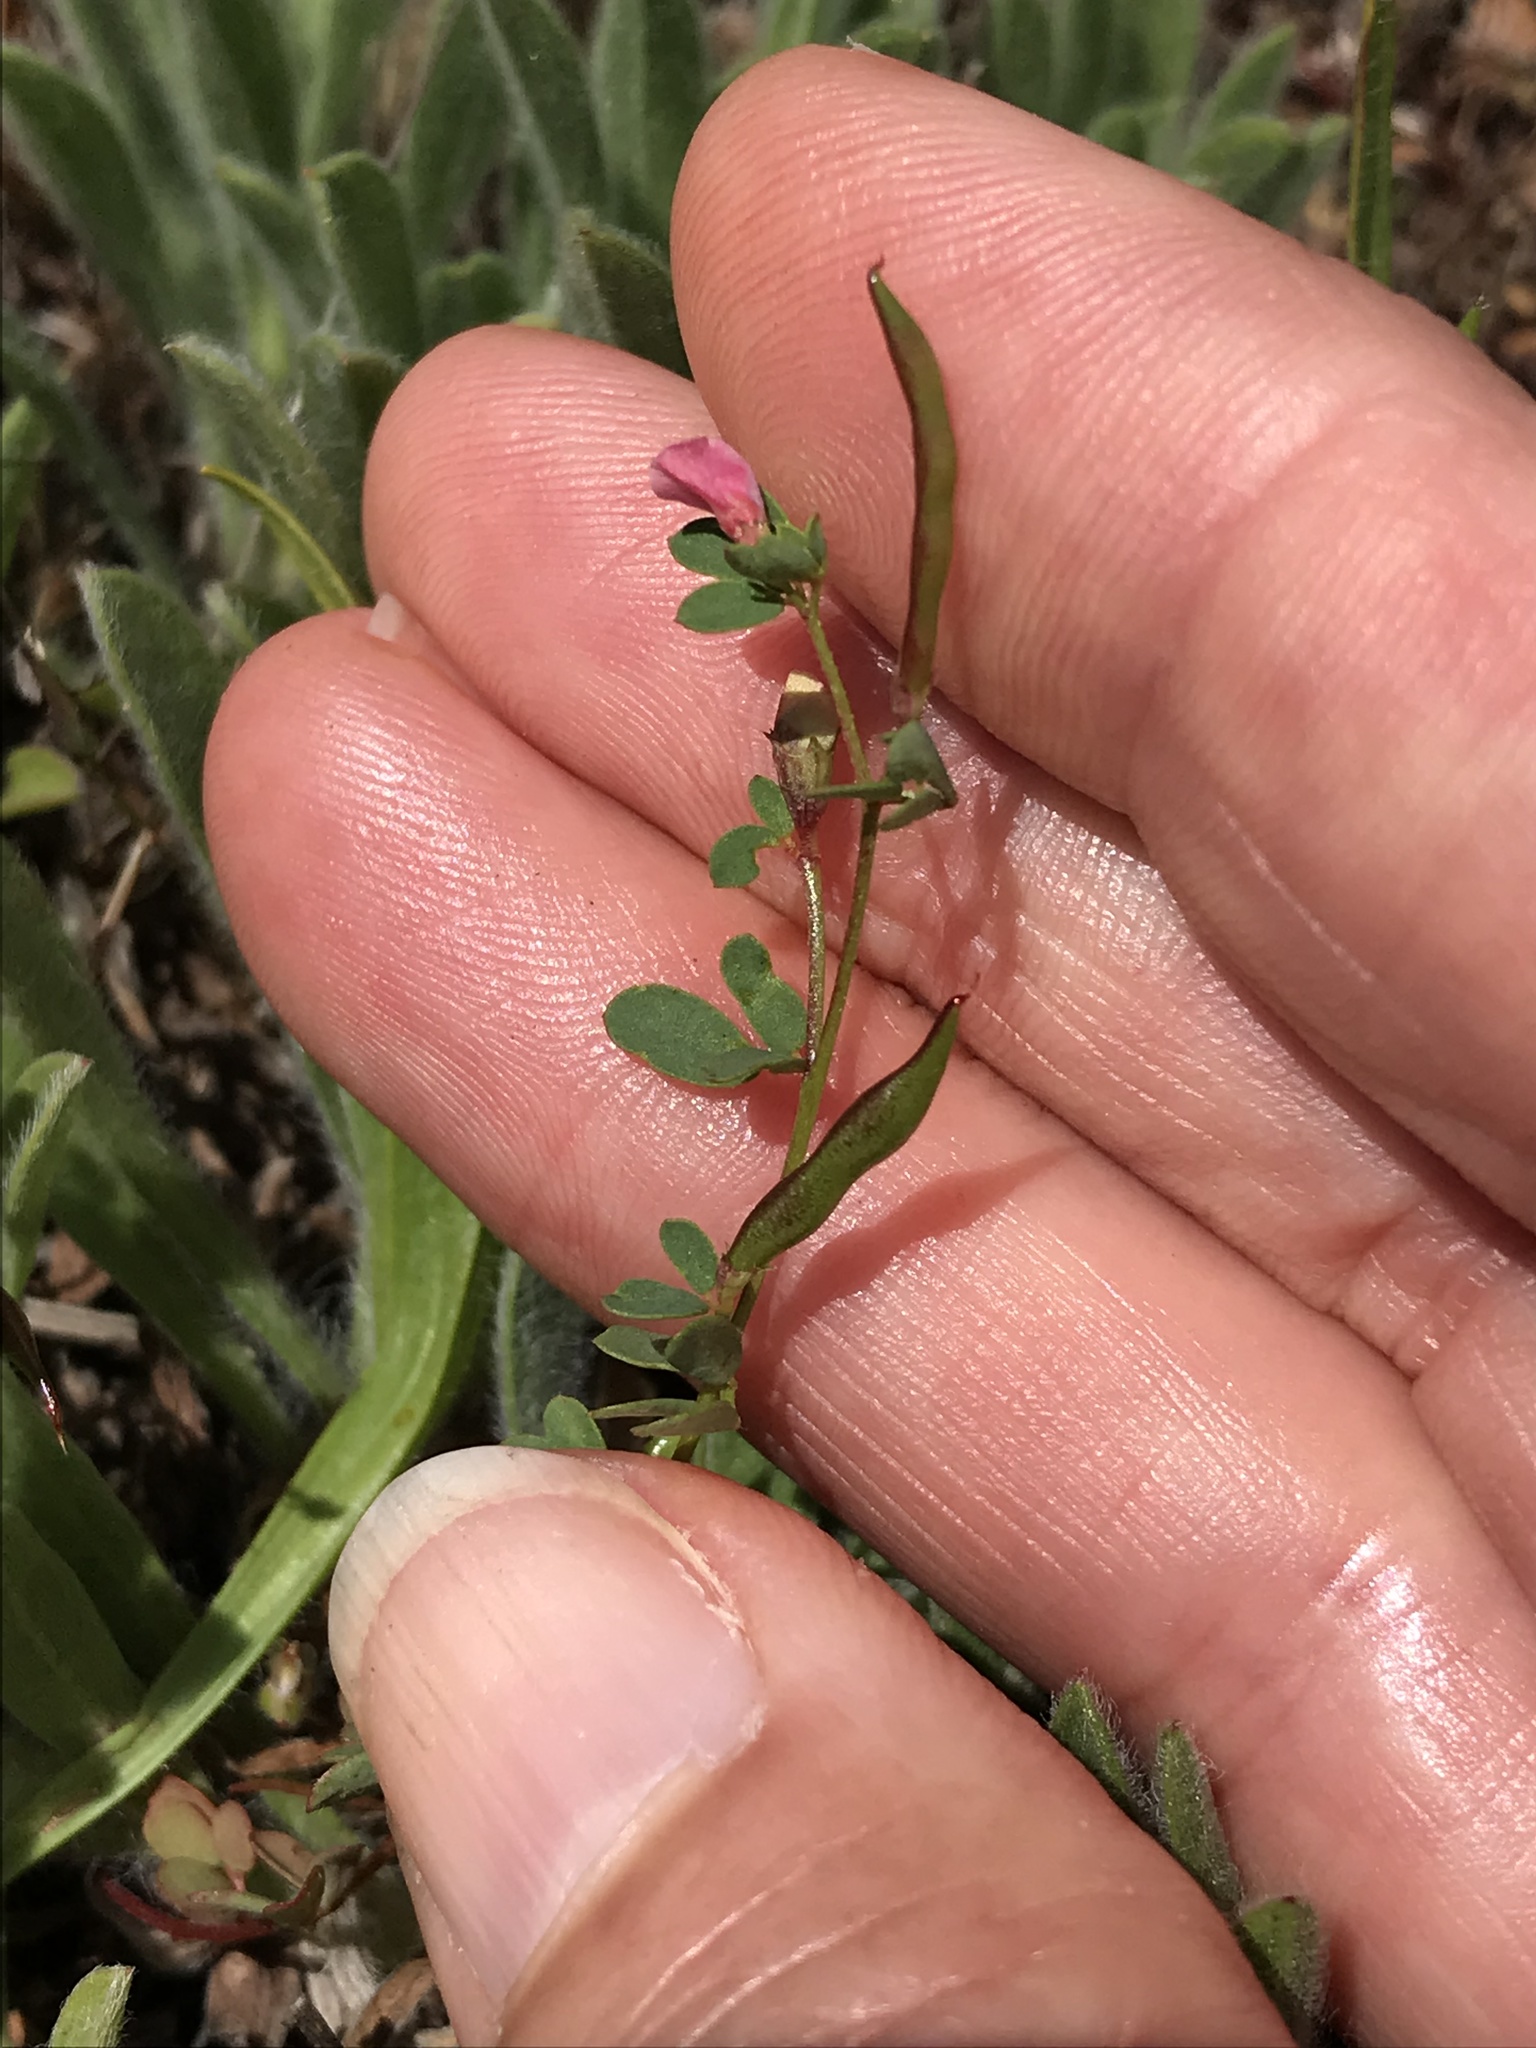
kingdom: Plantae
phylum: Tracheophyta
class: Magnoliopsida
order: Fabales
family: Fabaceae
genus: Acmispon
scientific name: Acmispon parviflorus
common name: Desert deer-vetch
